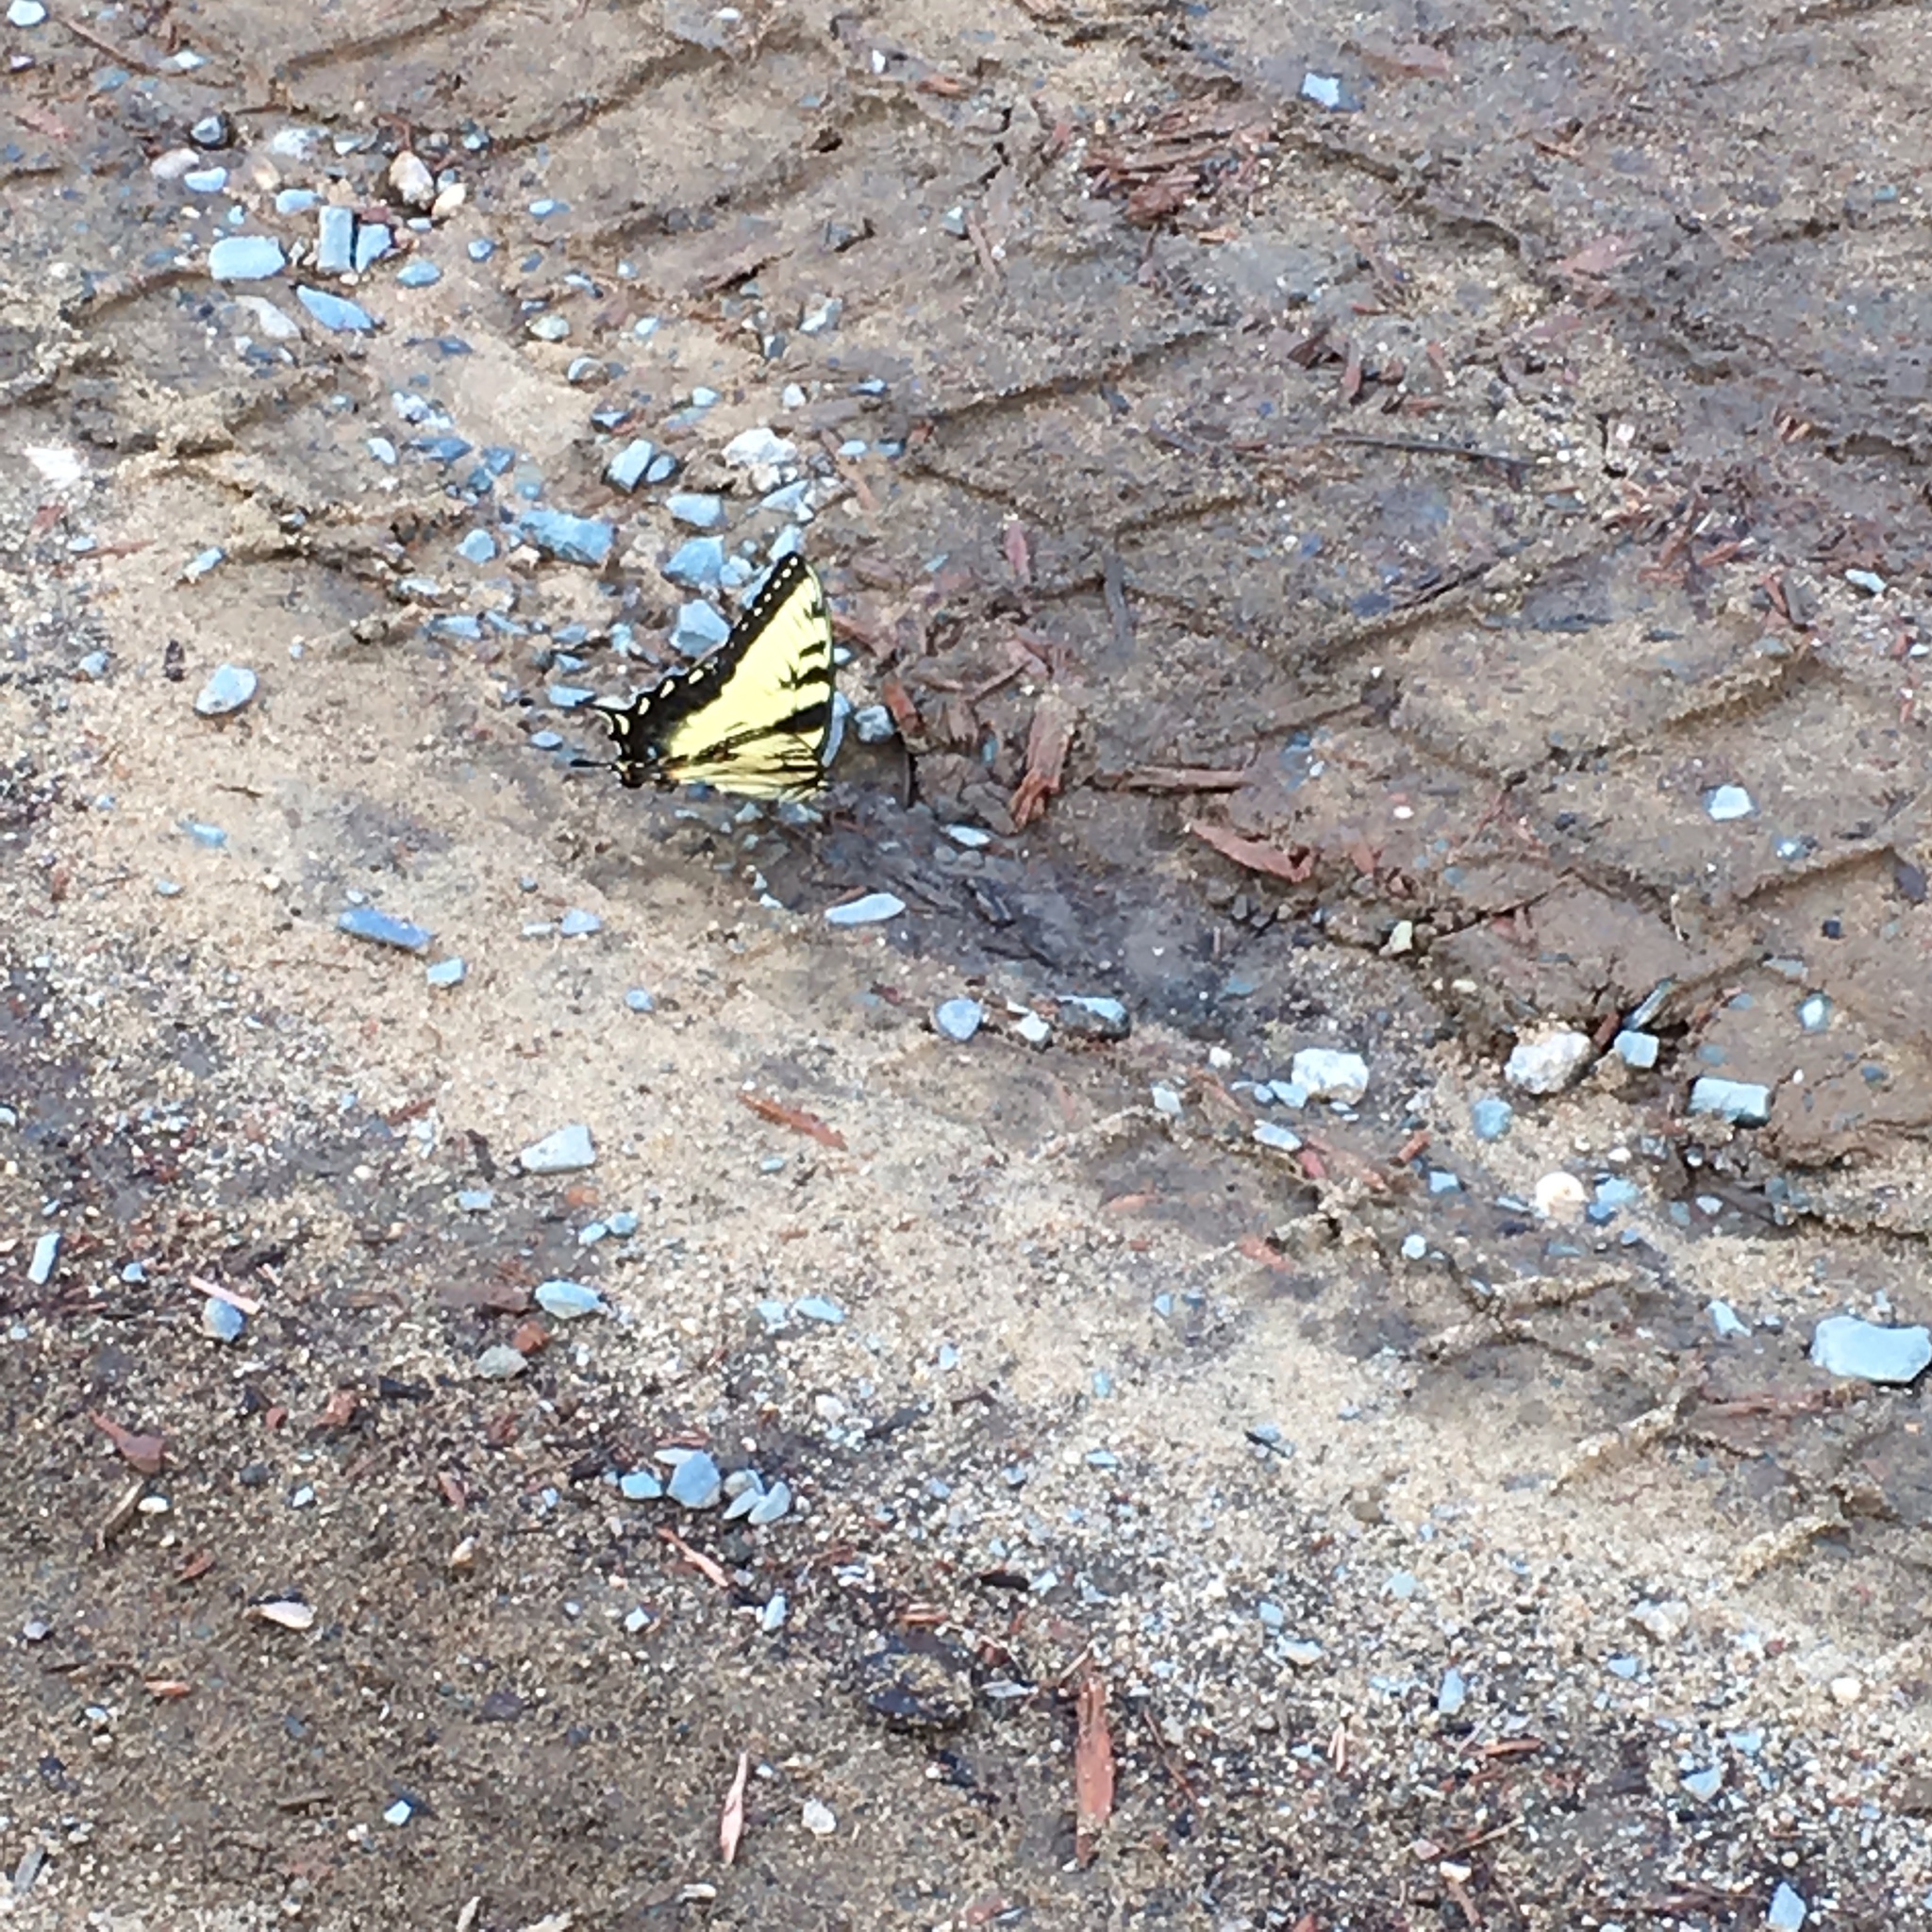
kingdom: Animalia
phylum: Arthropoda
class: Insecta
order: Lepidoptera
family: Papilionidae
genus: Papilio
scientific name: Papilio glaucus
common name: Tiger swallowtail
